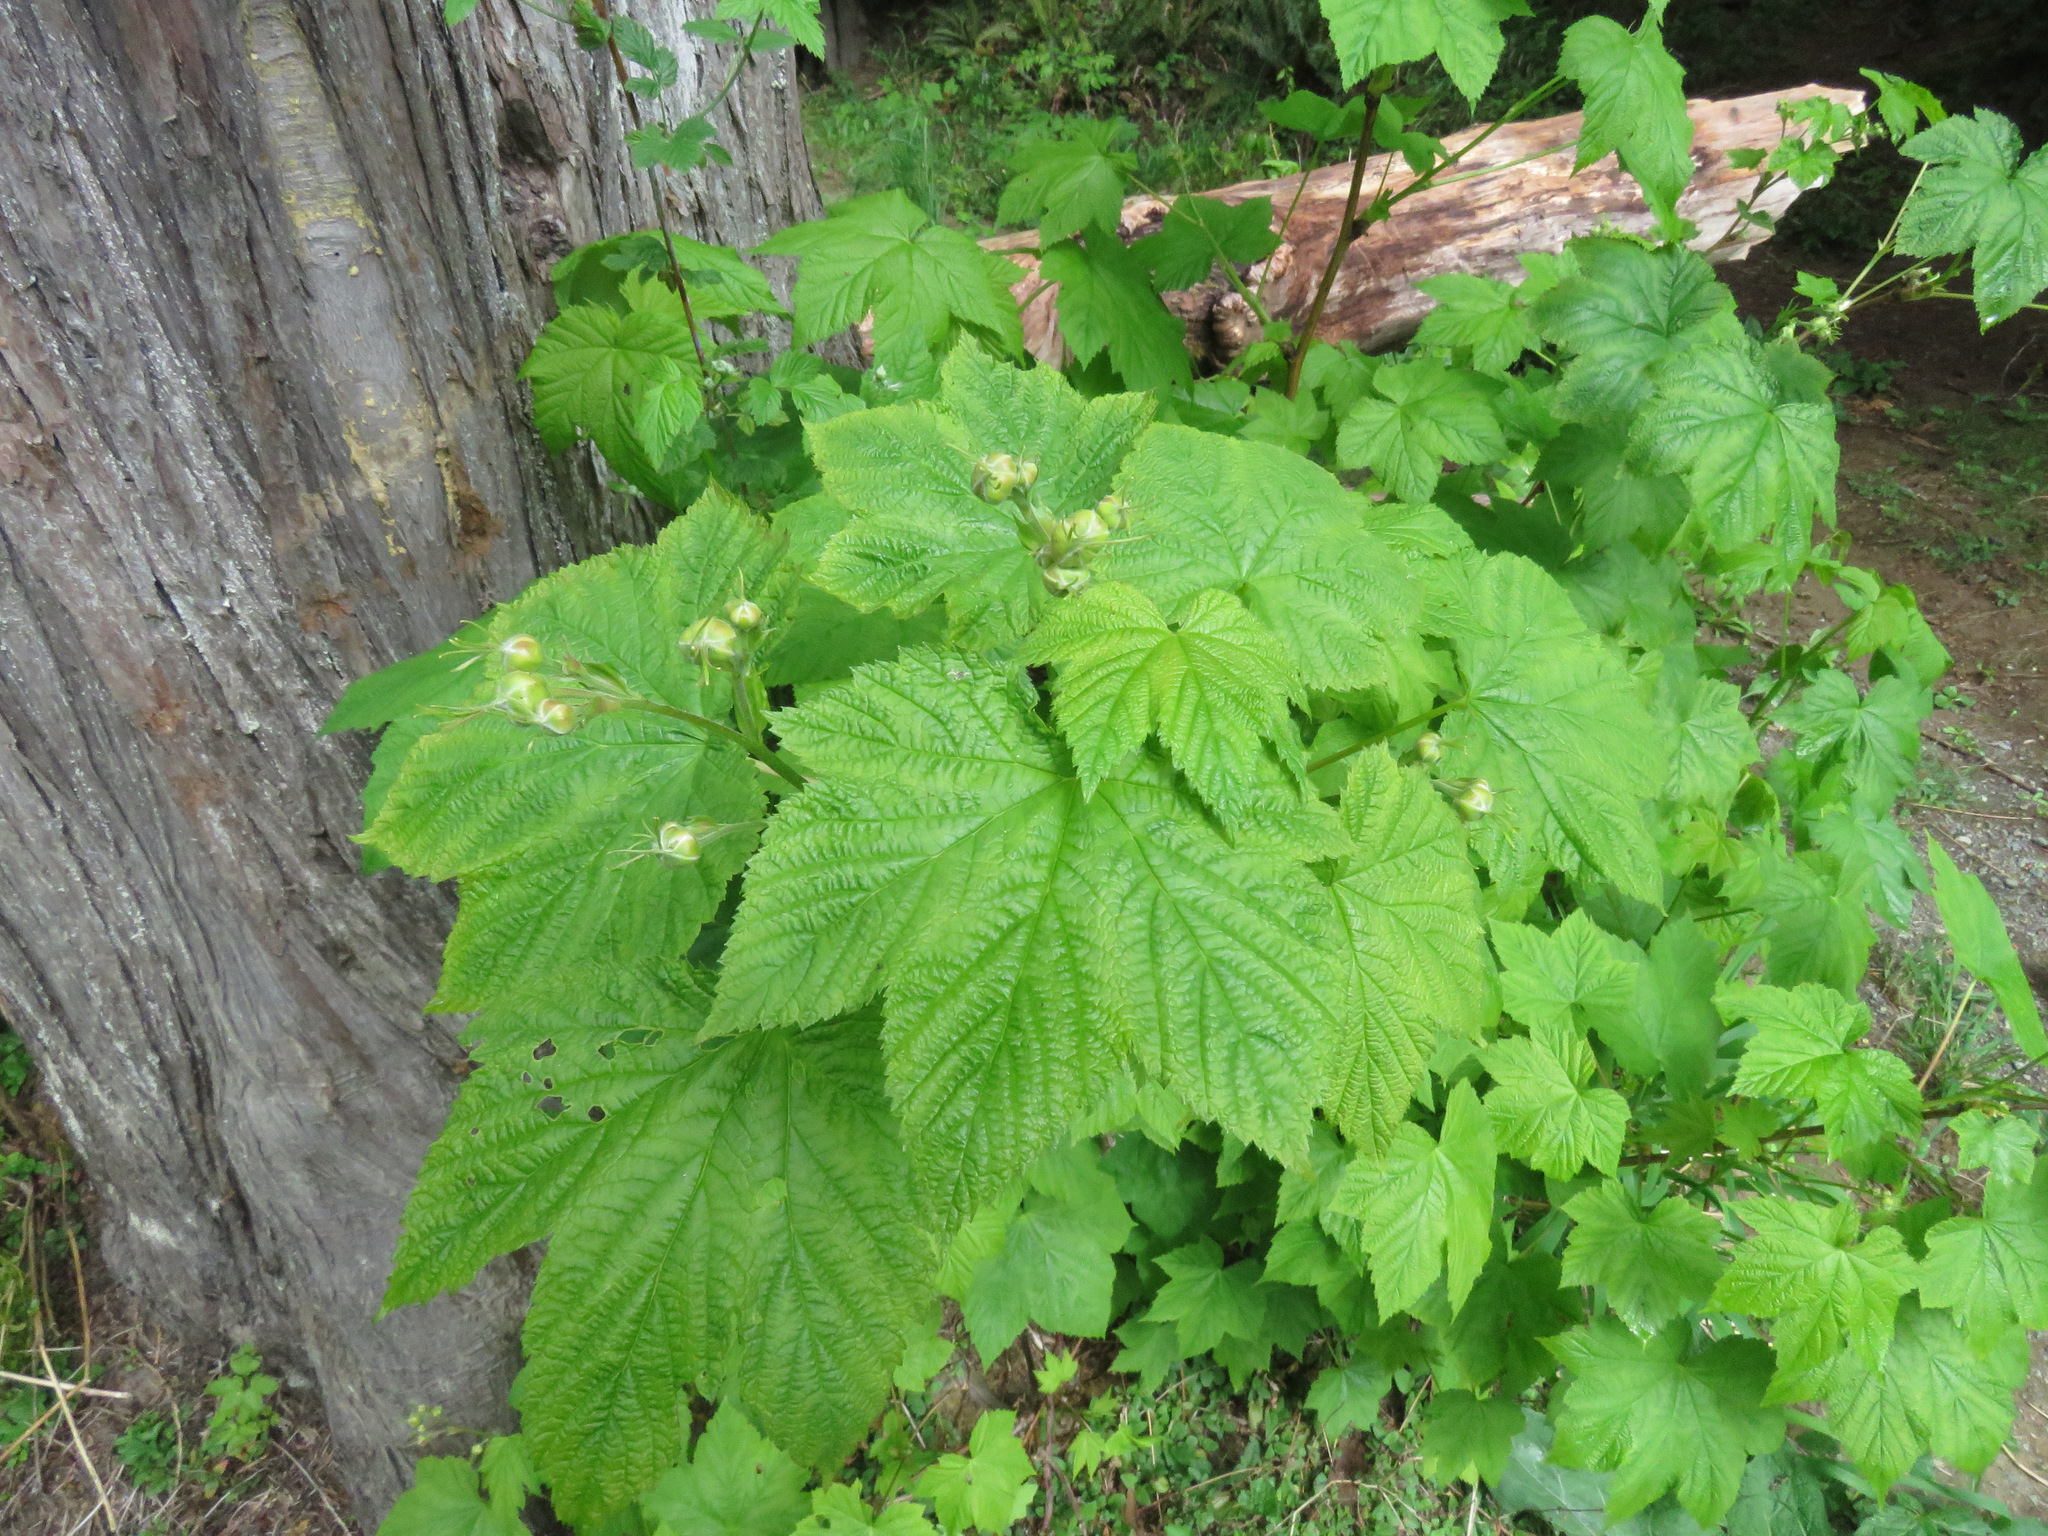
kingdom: Plantae
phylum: Tracheophyta
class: Magnoliopsida
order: Rosales
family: Rosaceae
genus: Rubus
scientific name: Rubus parviflorus
